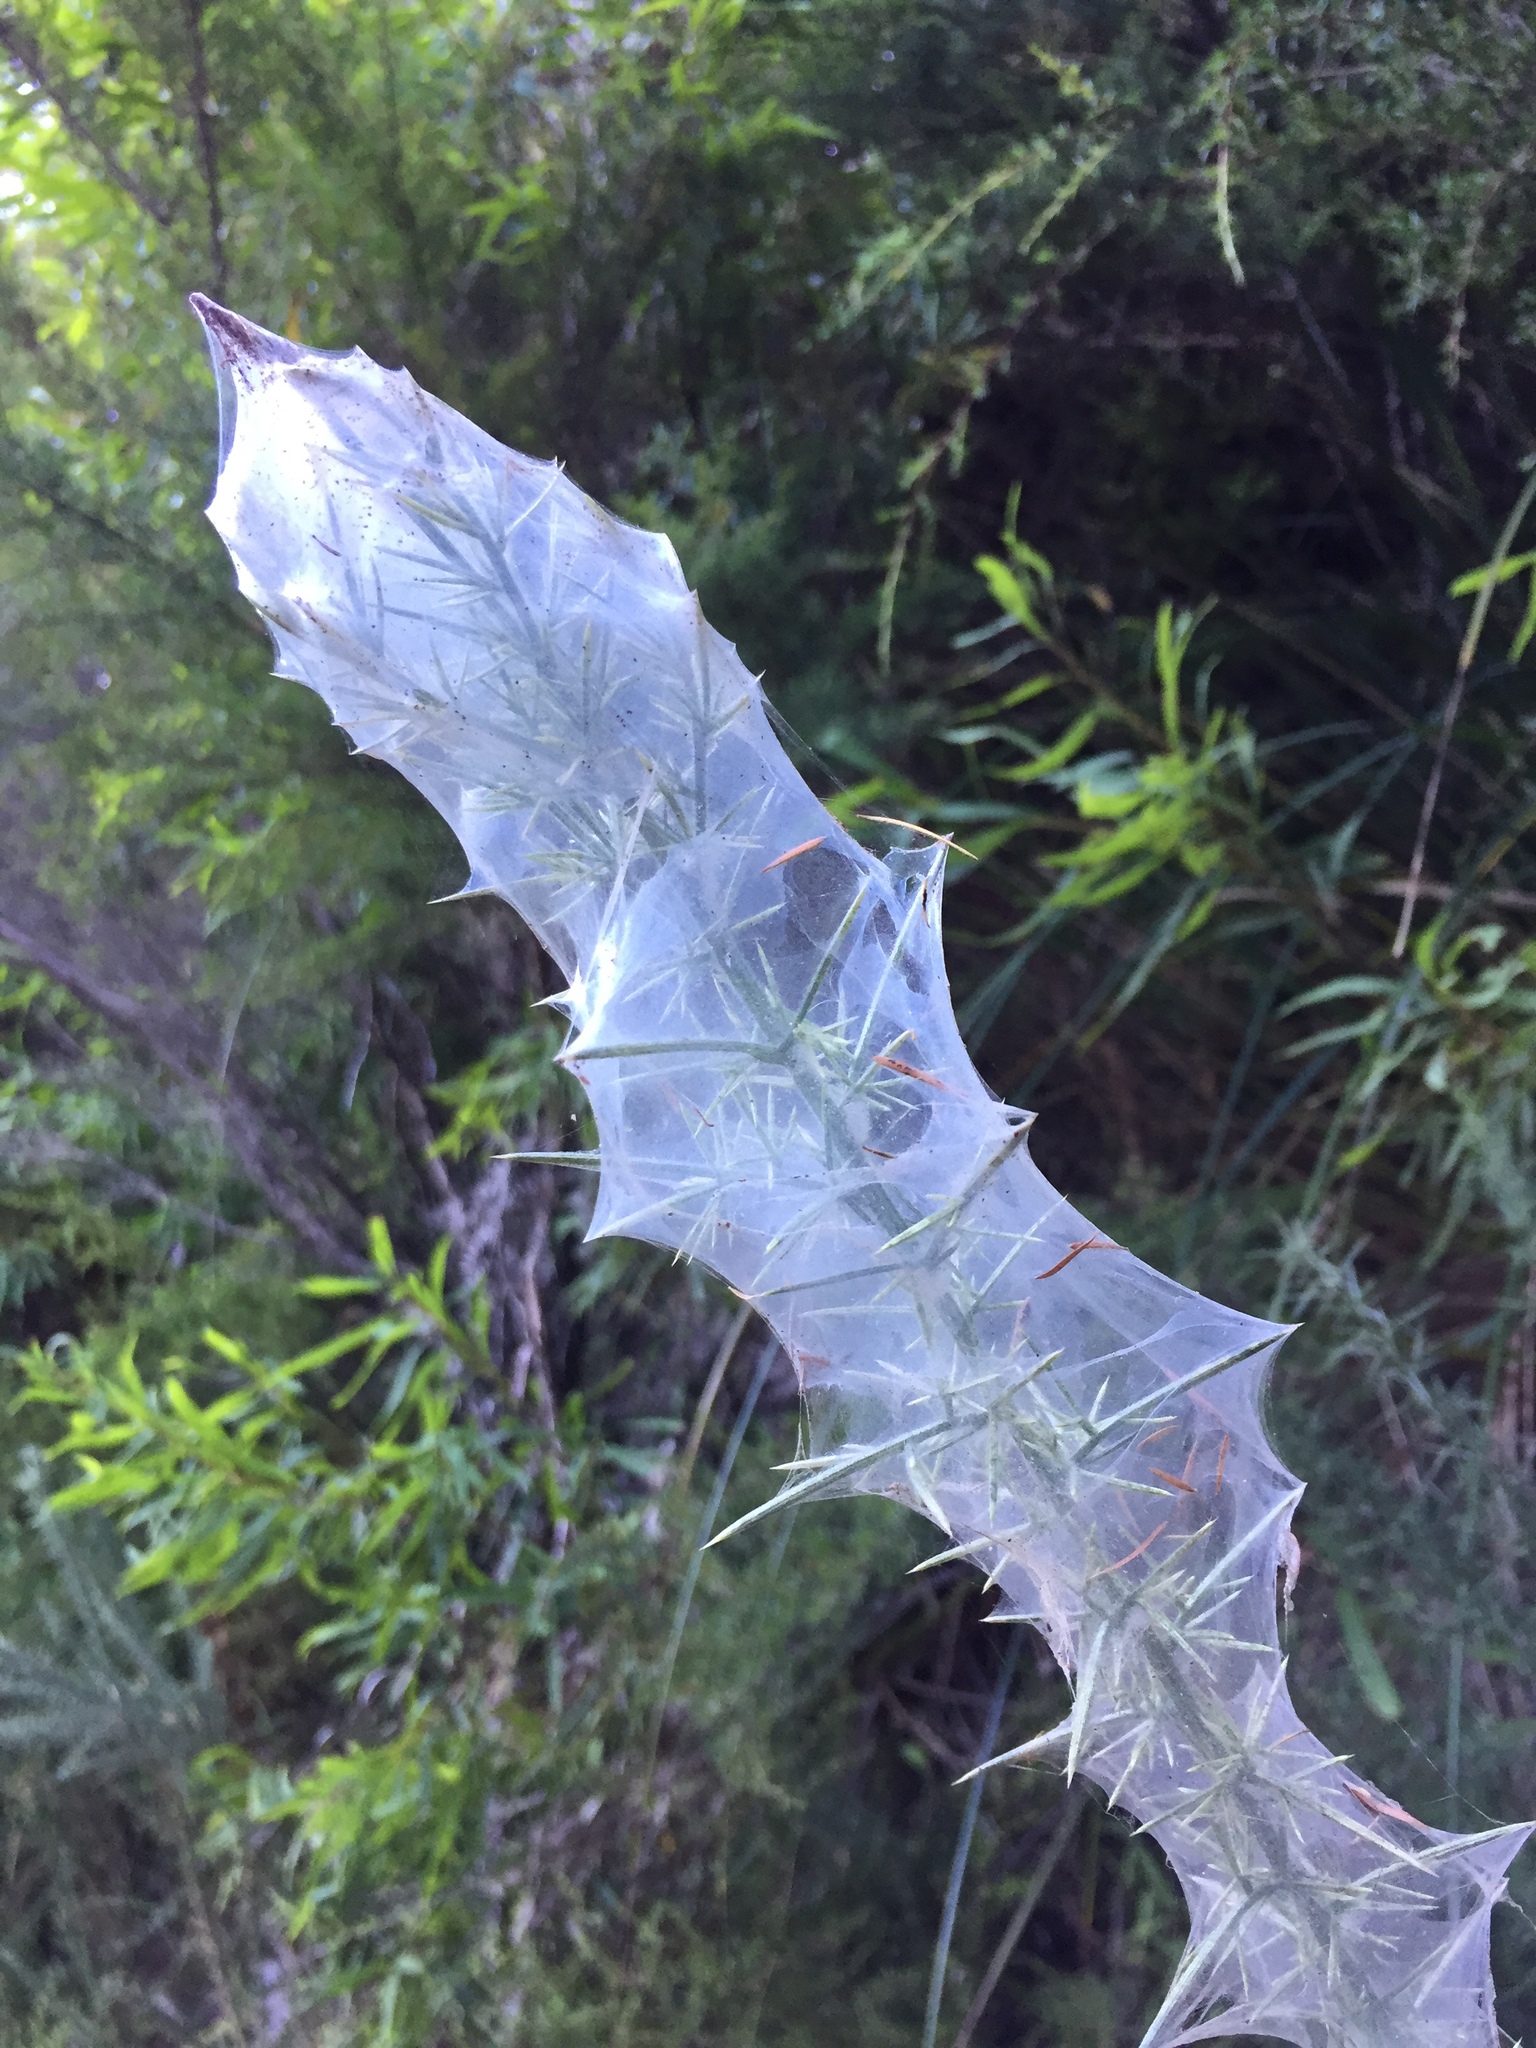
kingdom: Animalia
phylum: Arthropoda
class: Arachnida
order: Trombidiformes
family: Tetranychidae
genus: Tetranychus
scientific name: Tetranychus lintearius
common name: Gorse spider mite
